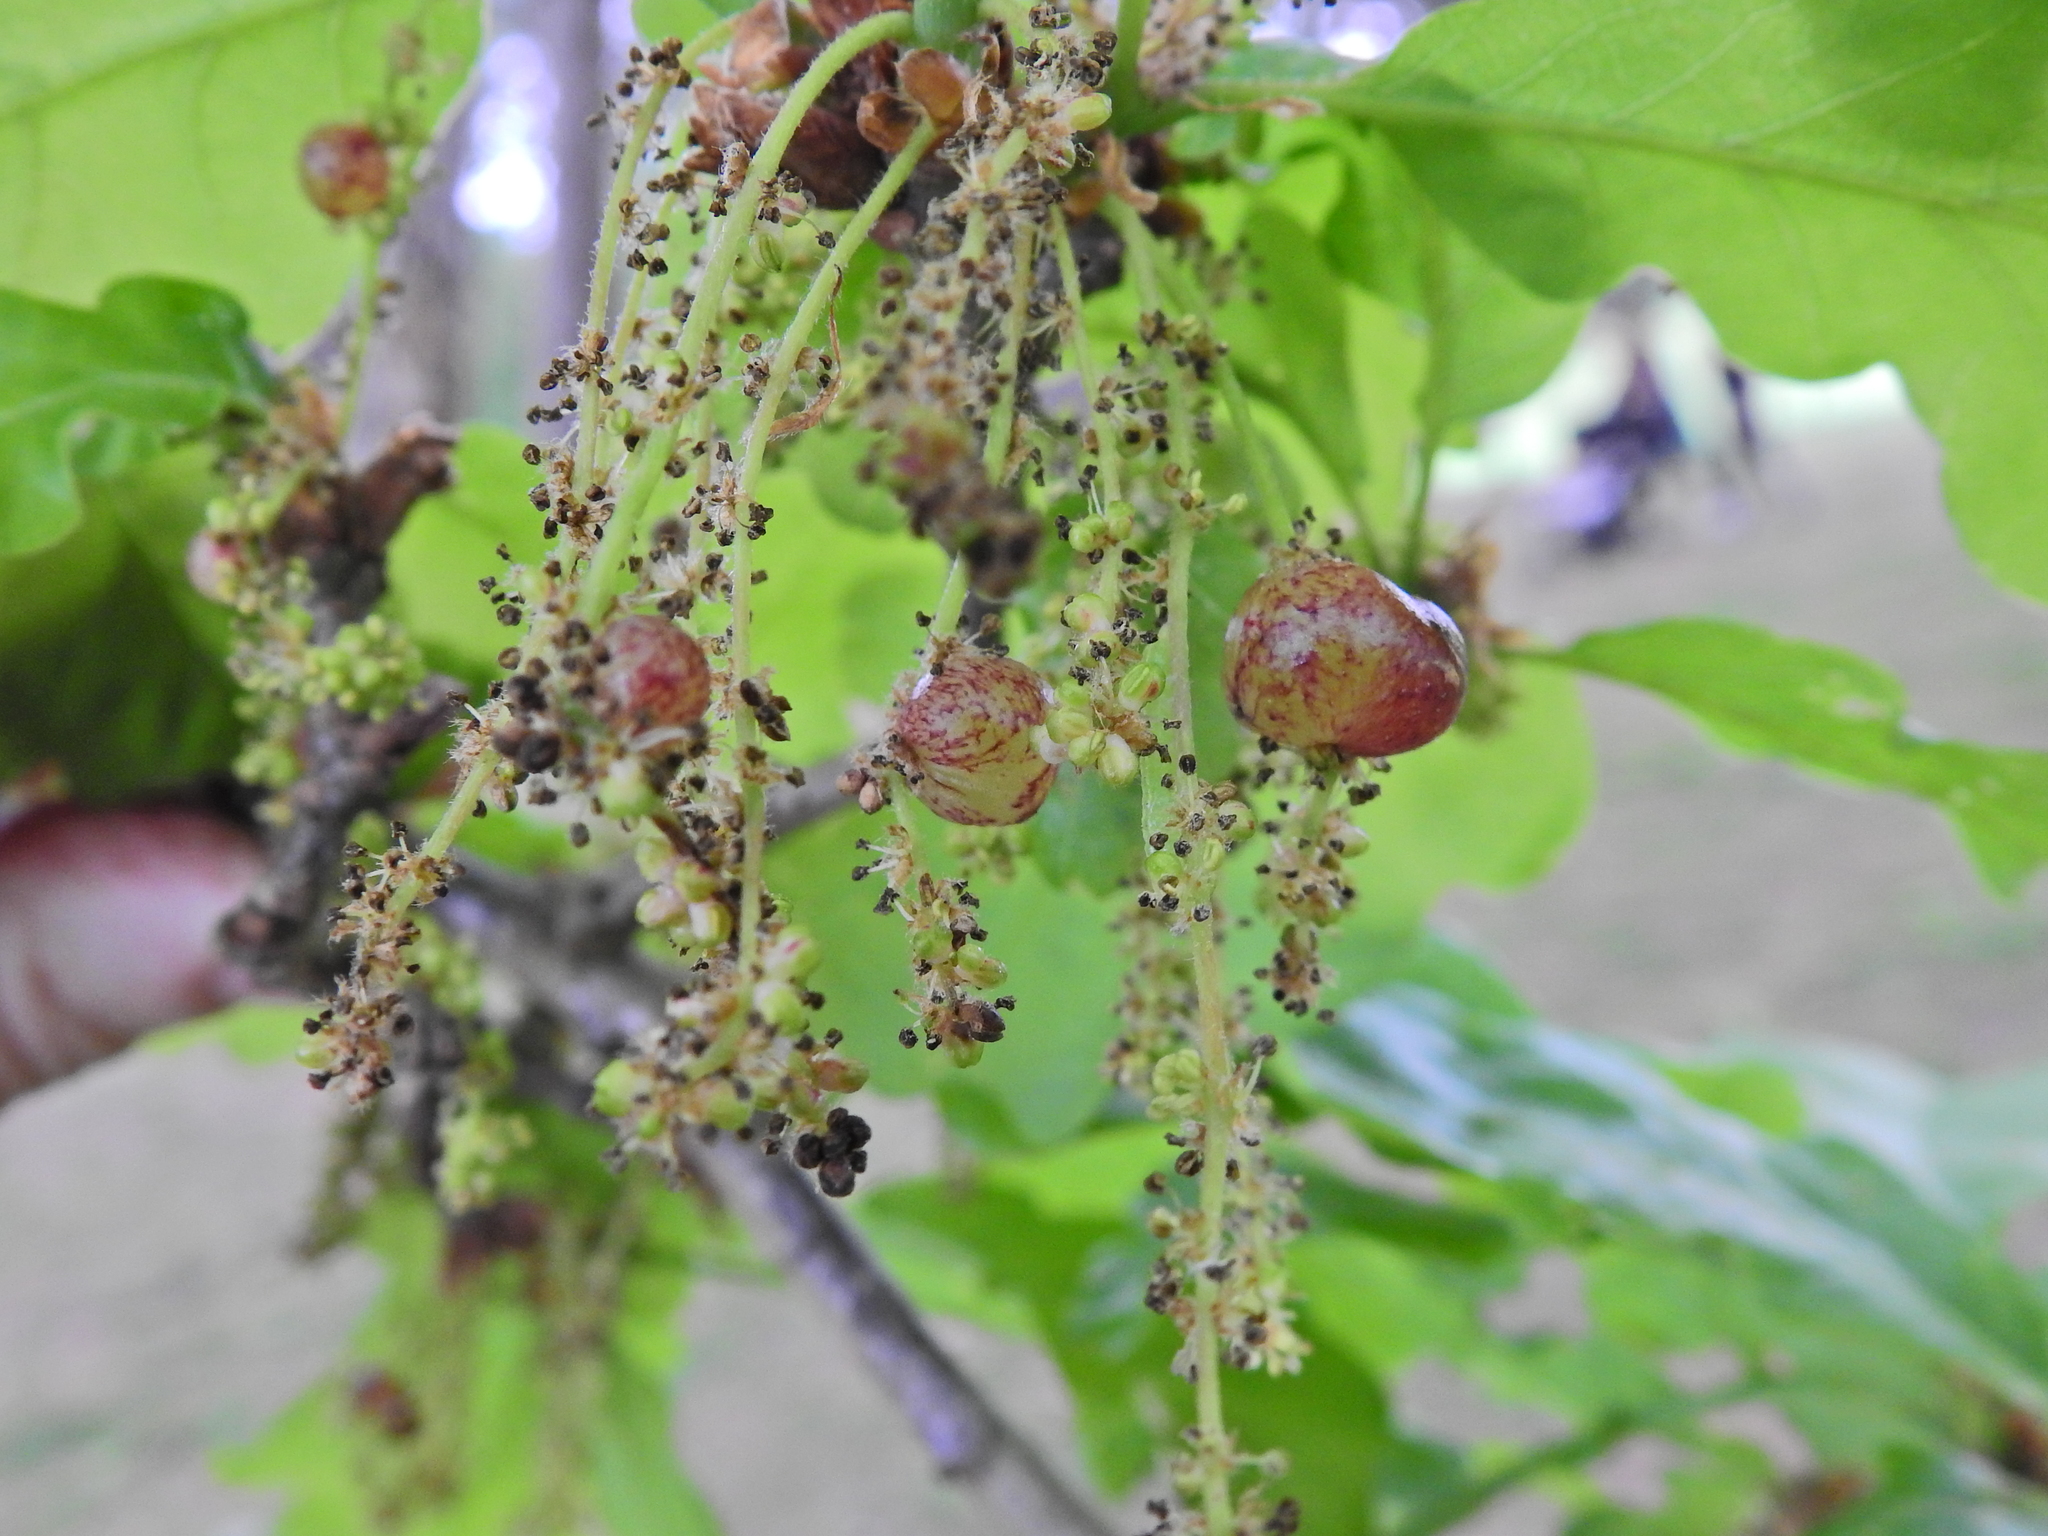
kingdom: Animalia
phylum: Arthropoda
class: Insecta
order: Hymenoptera
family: Cynipidae
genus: Neuroterus
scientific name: Neuroterus quercusbaccarum
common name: Common spangle gall
